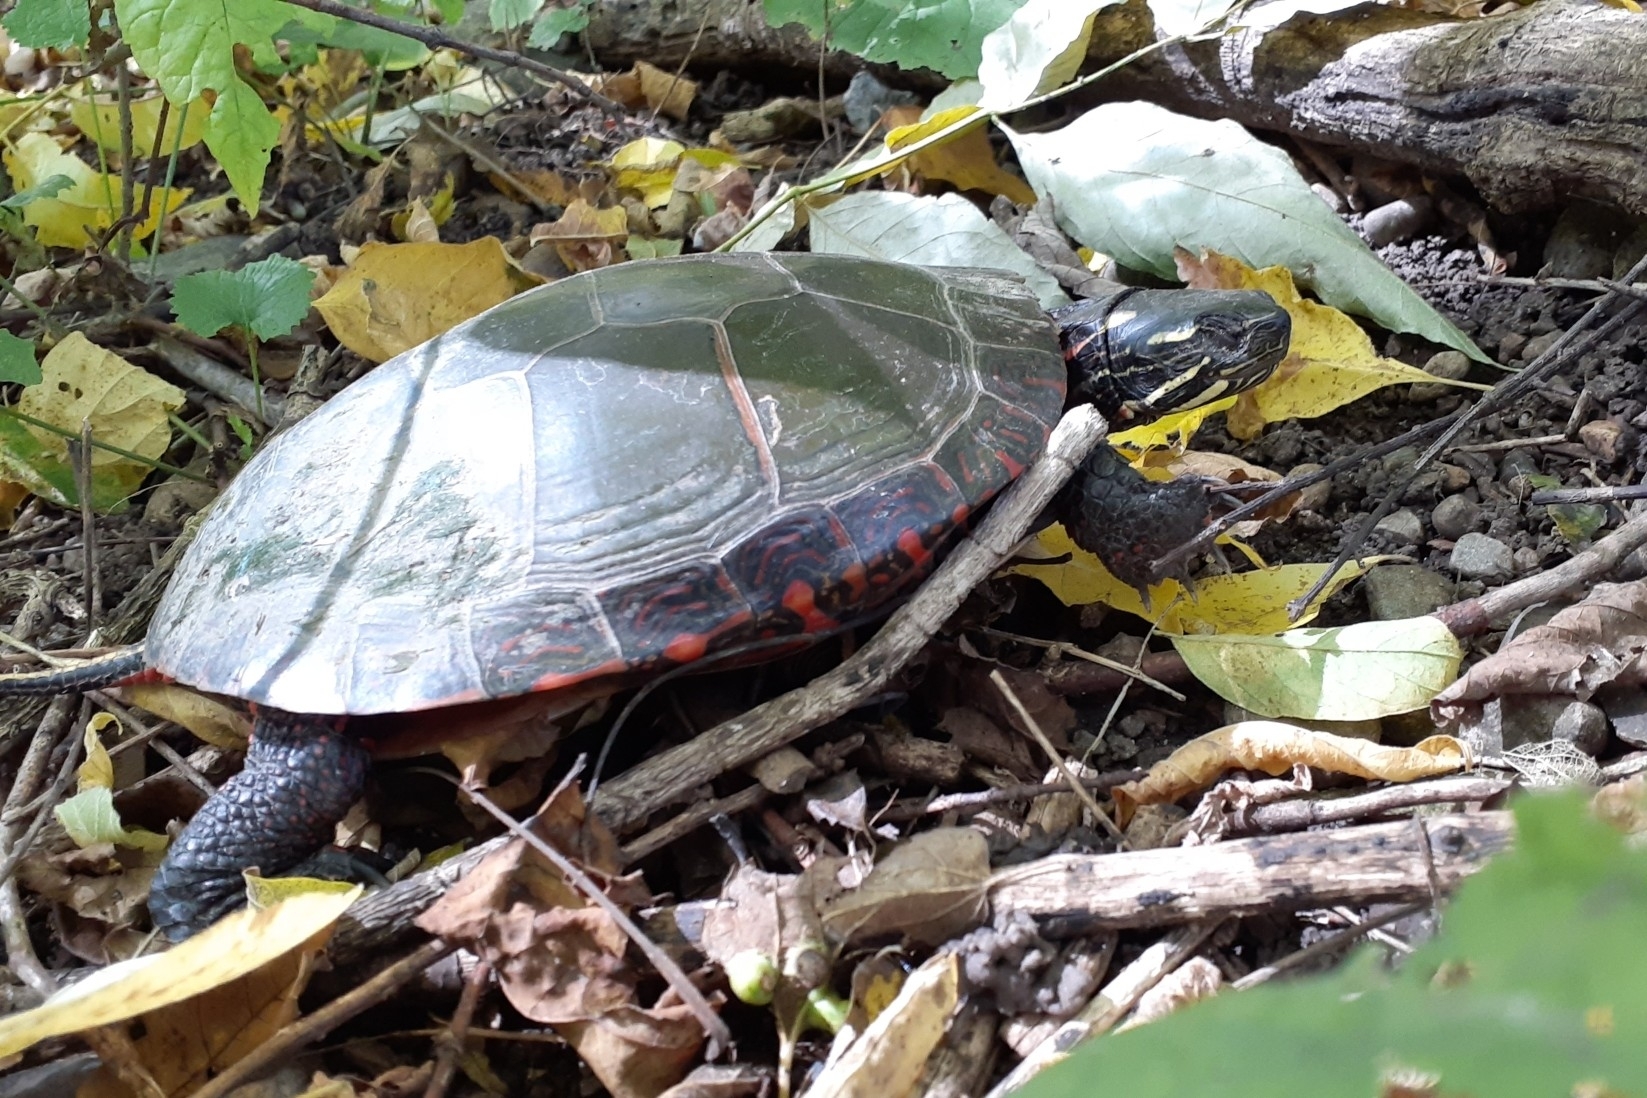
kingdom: Animalia
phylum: Chordata
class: Testudines
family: Emydidae
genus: Chrysemys
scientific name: Chrysemys picta
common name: Painted turtle
